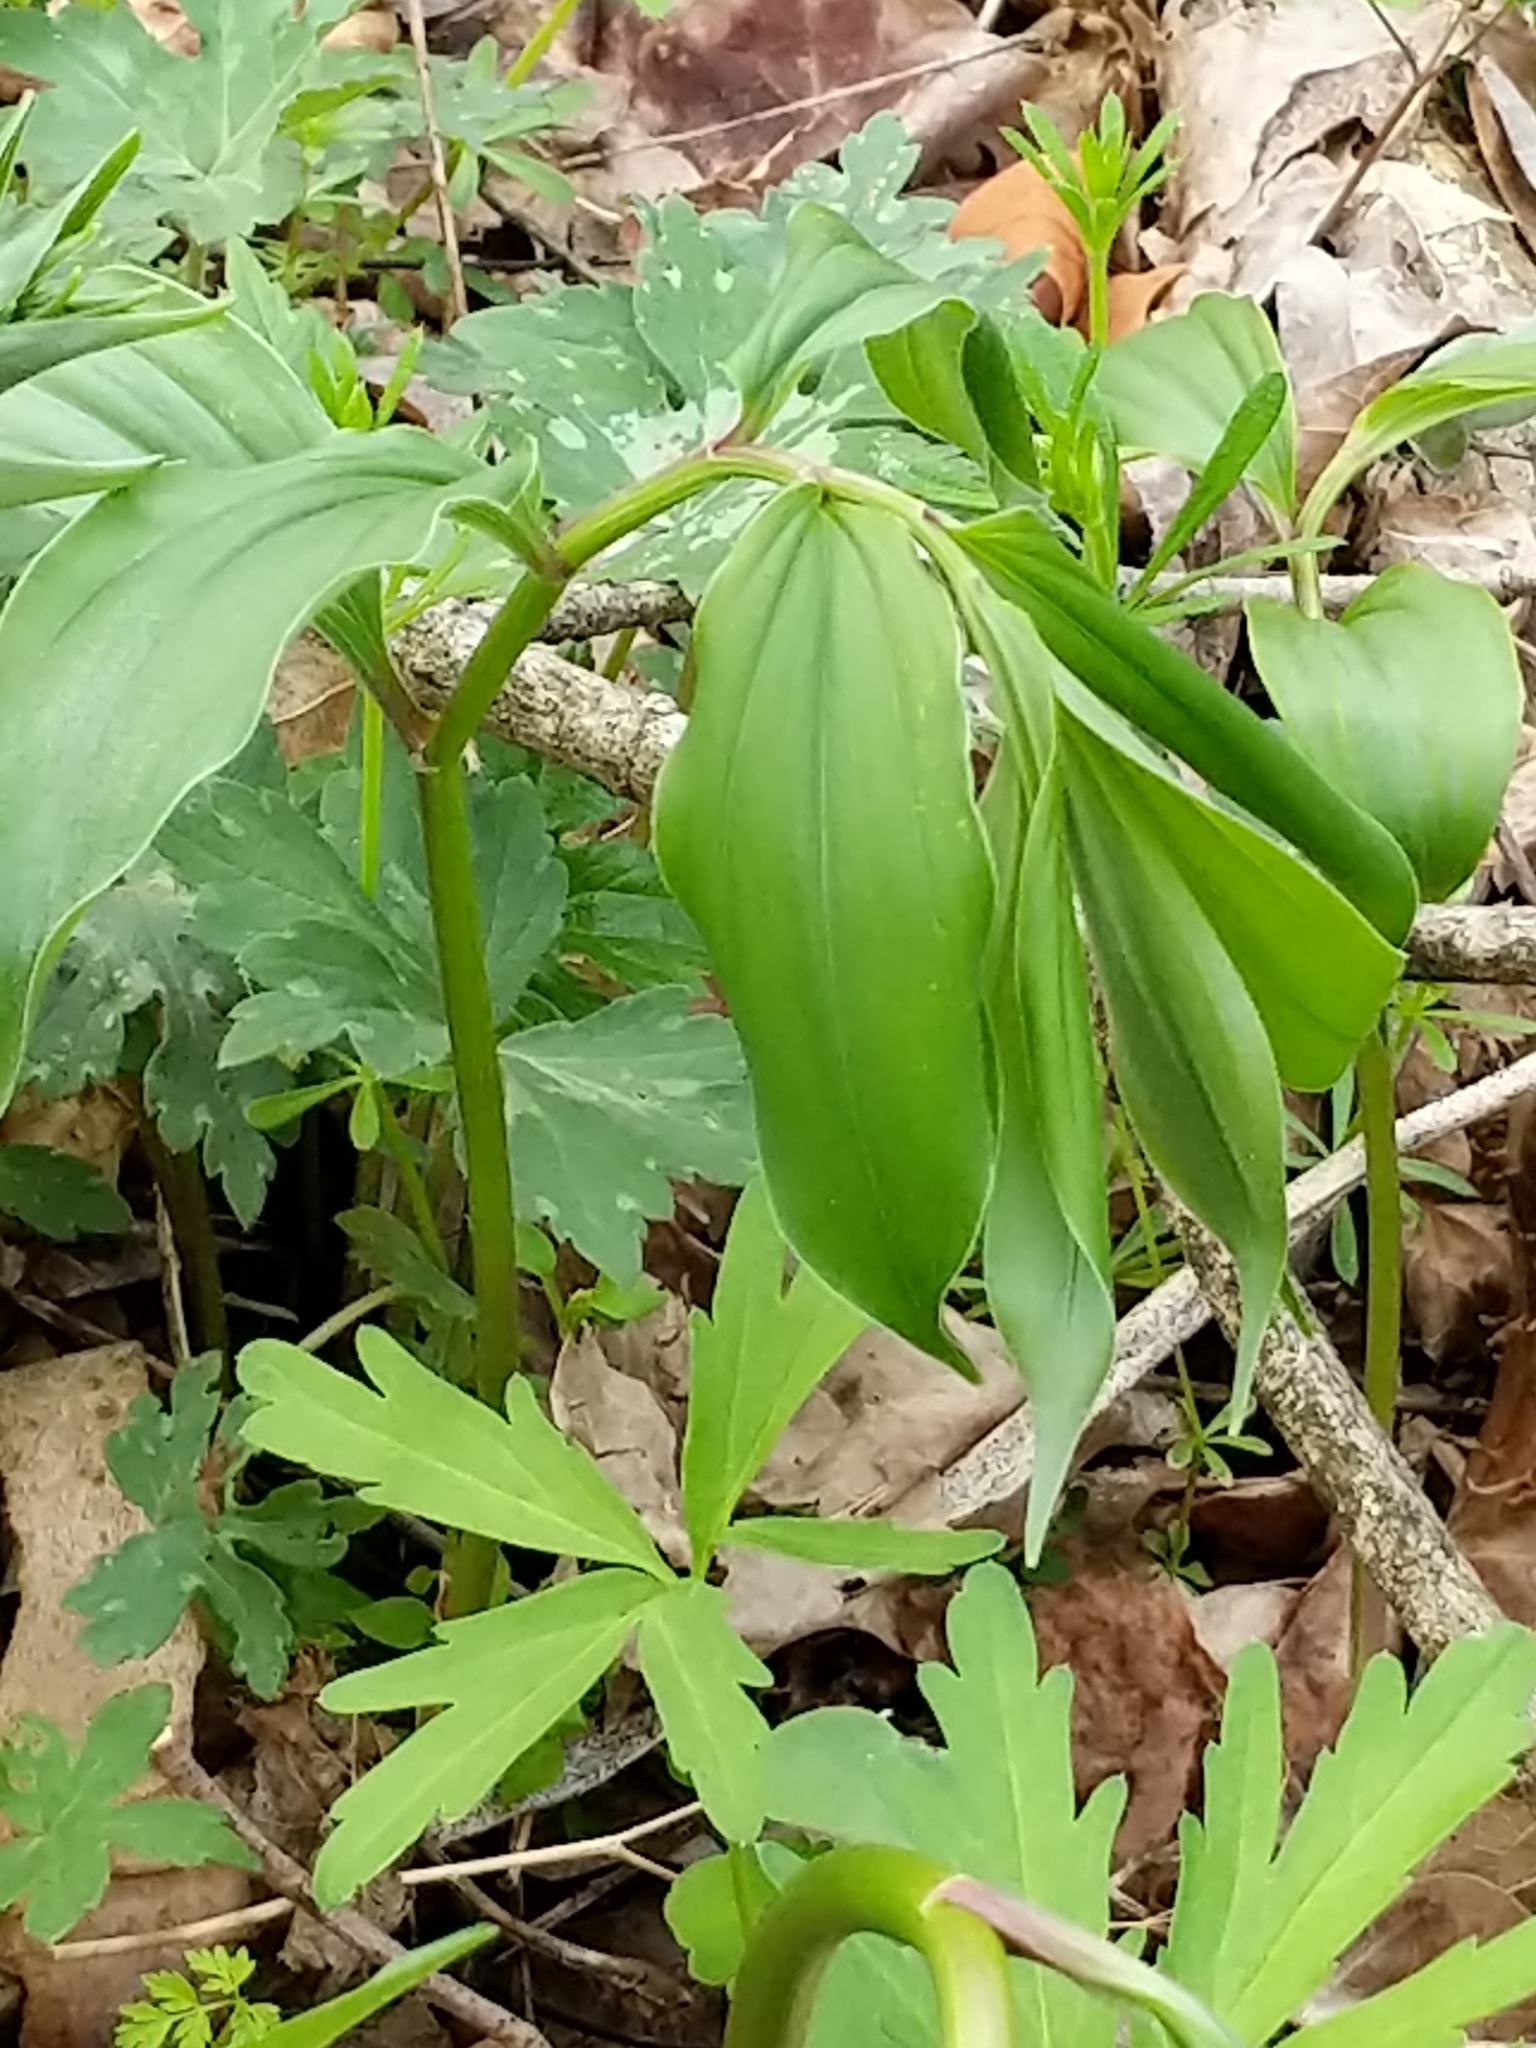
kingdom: Plantae
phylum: Tracheophyta
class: Liliopsida
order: Asparagales
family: Asparagaceae
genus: Maianthemum
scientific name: Maianthemum racemosum
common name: False spikenard
